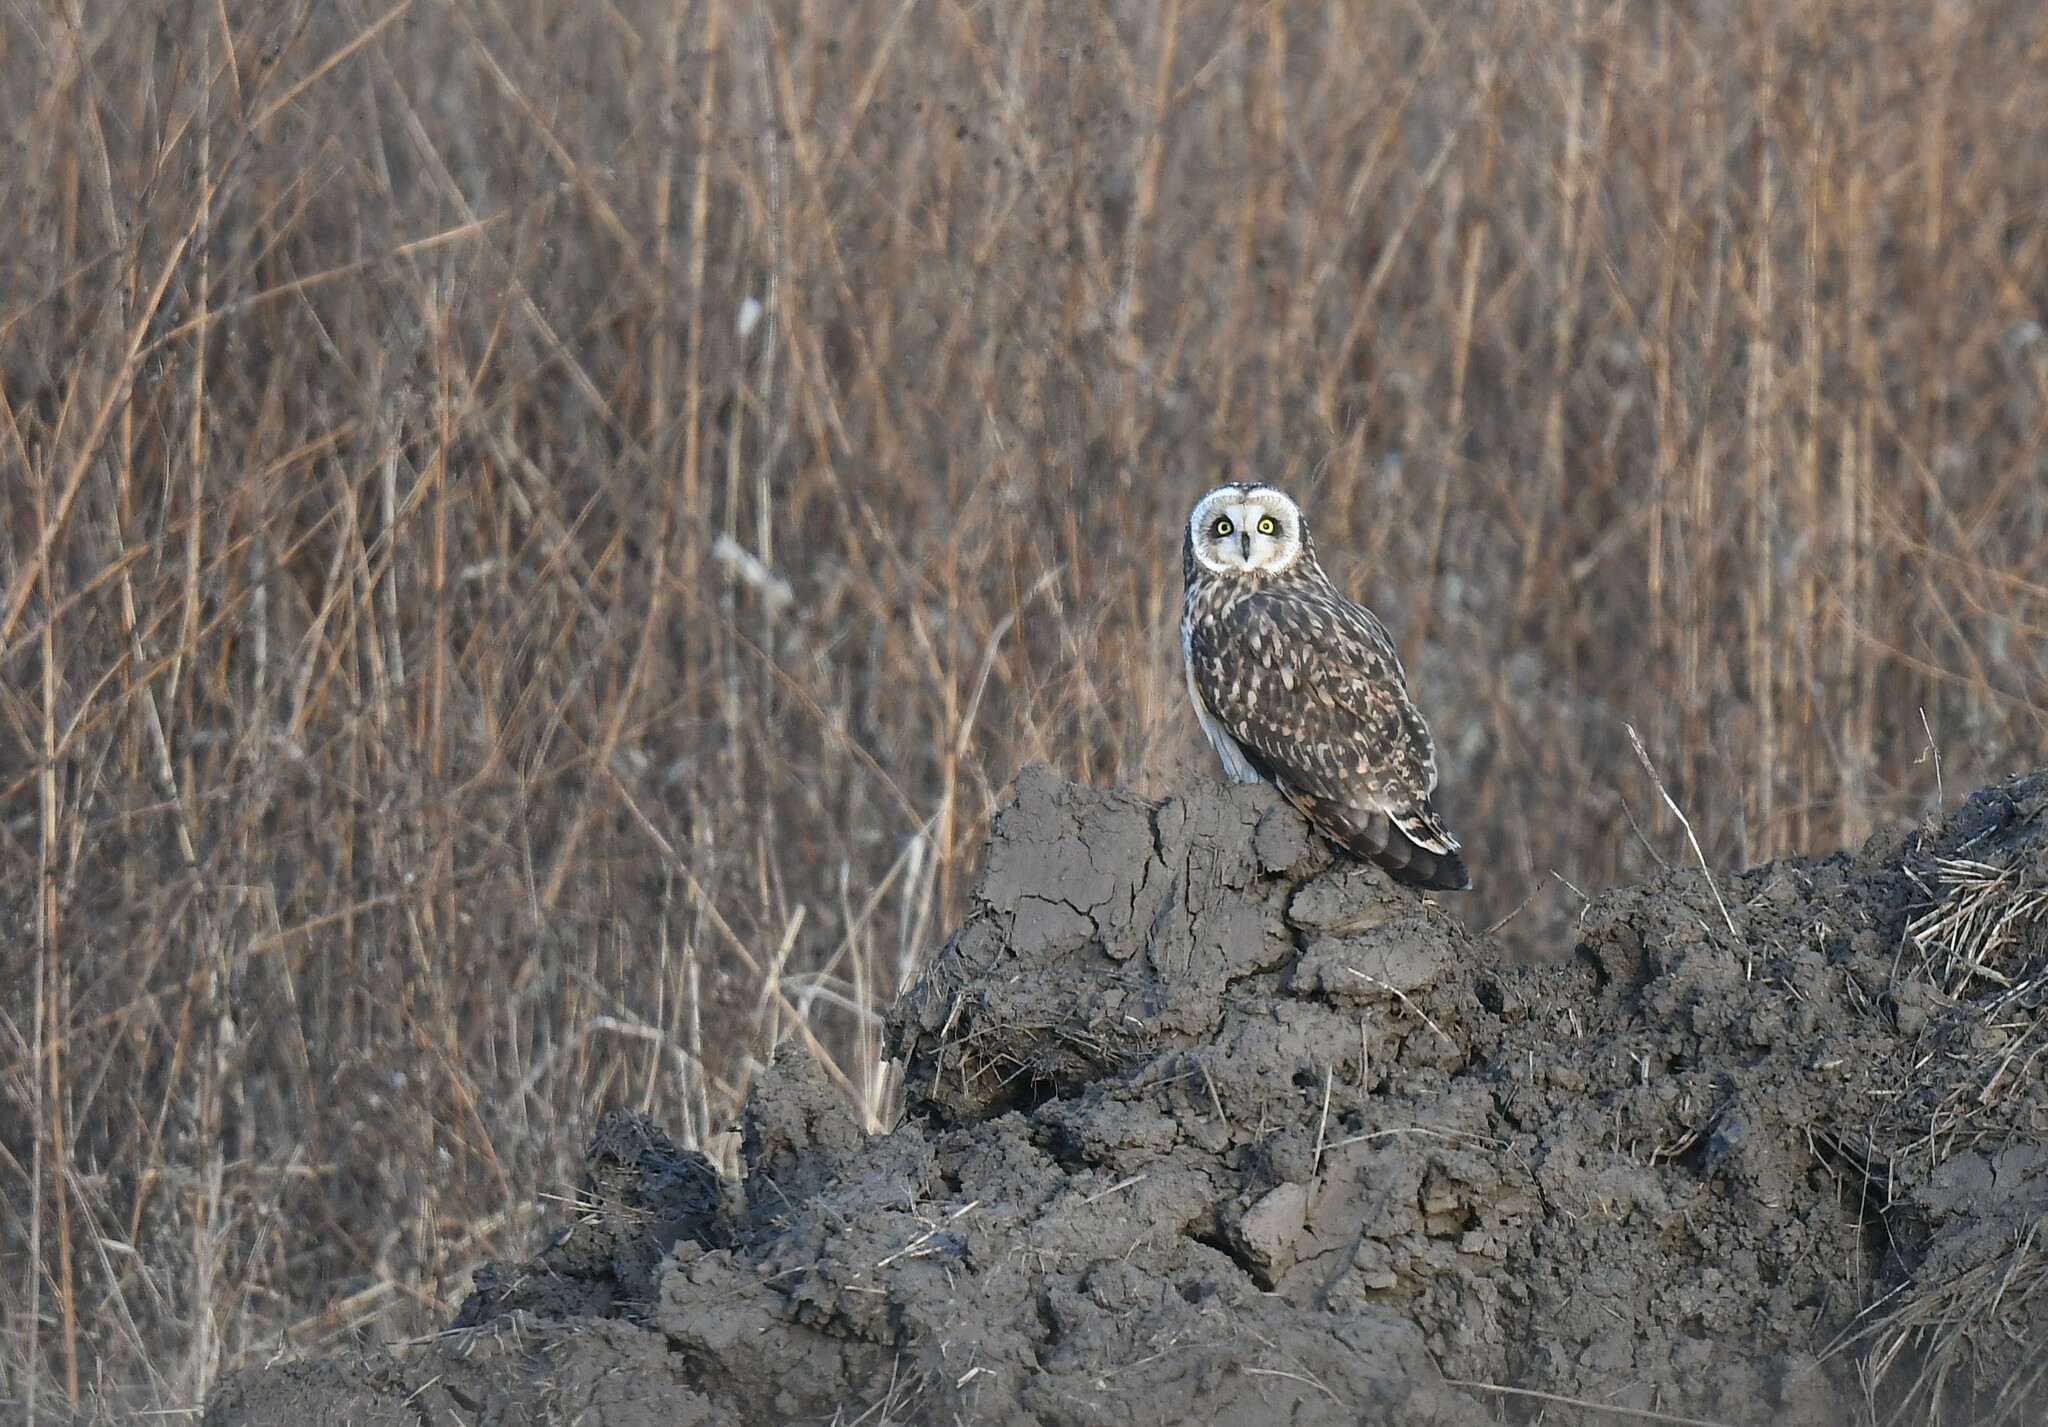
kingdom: Animalia
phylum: Chordata
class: Aves
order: Strigiformes
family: Strigidae
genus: Asio
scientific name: Asio flammeus
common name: Short-eared owl
